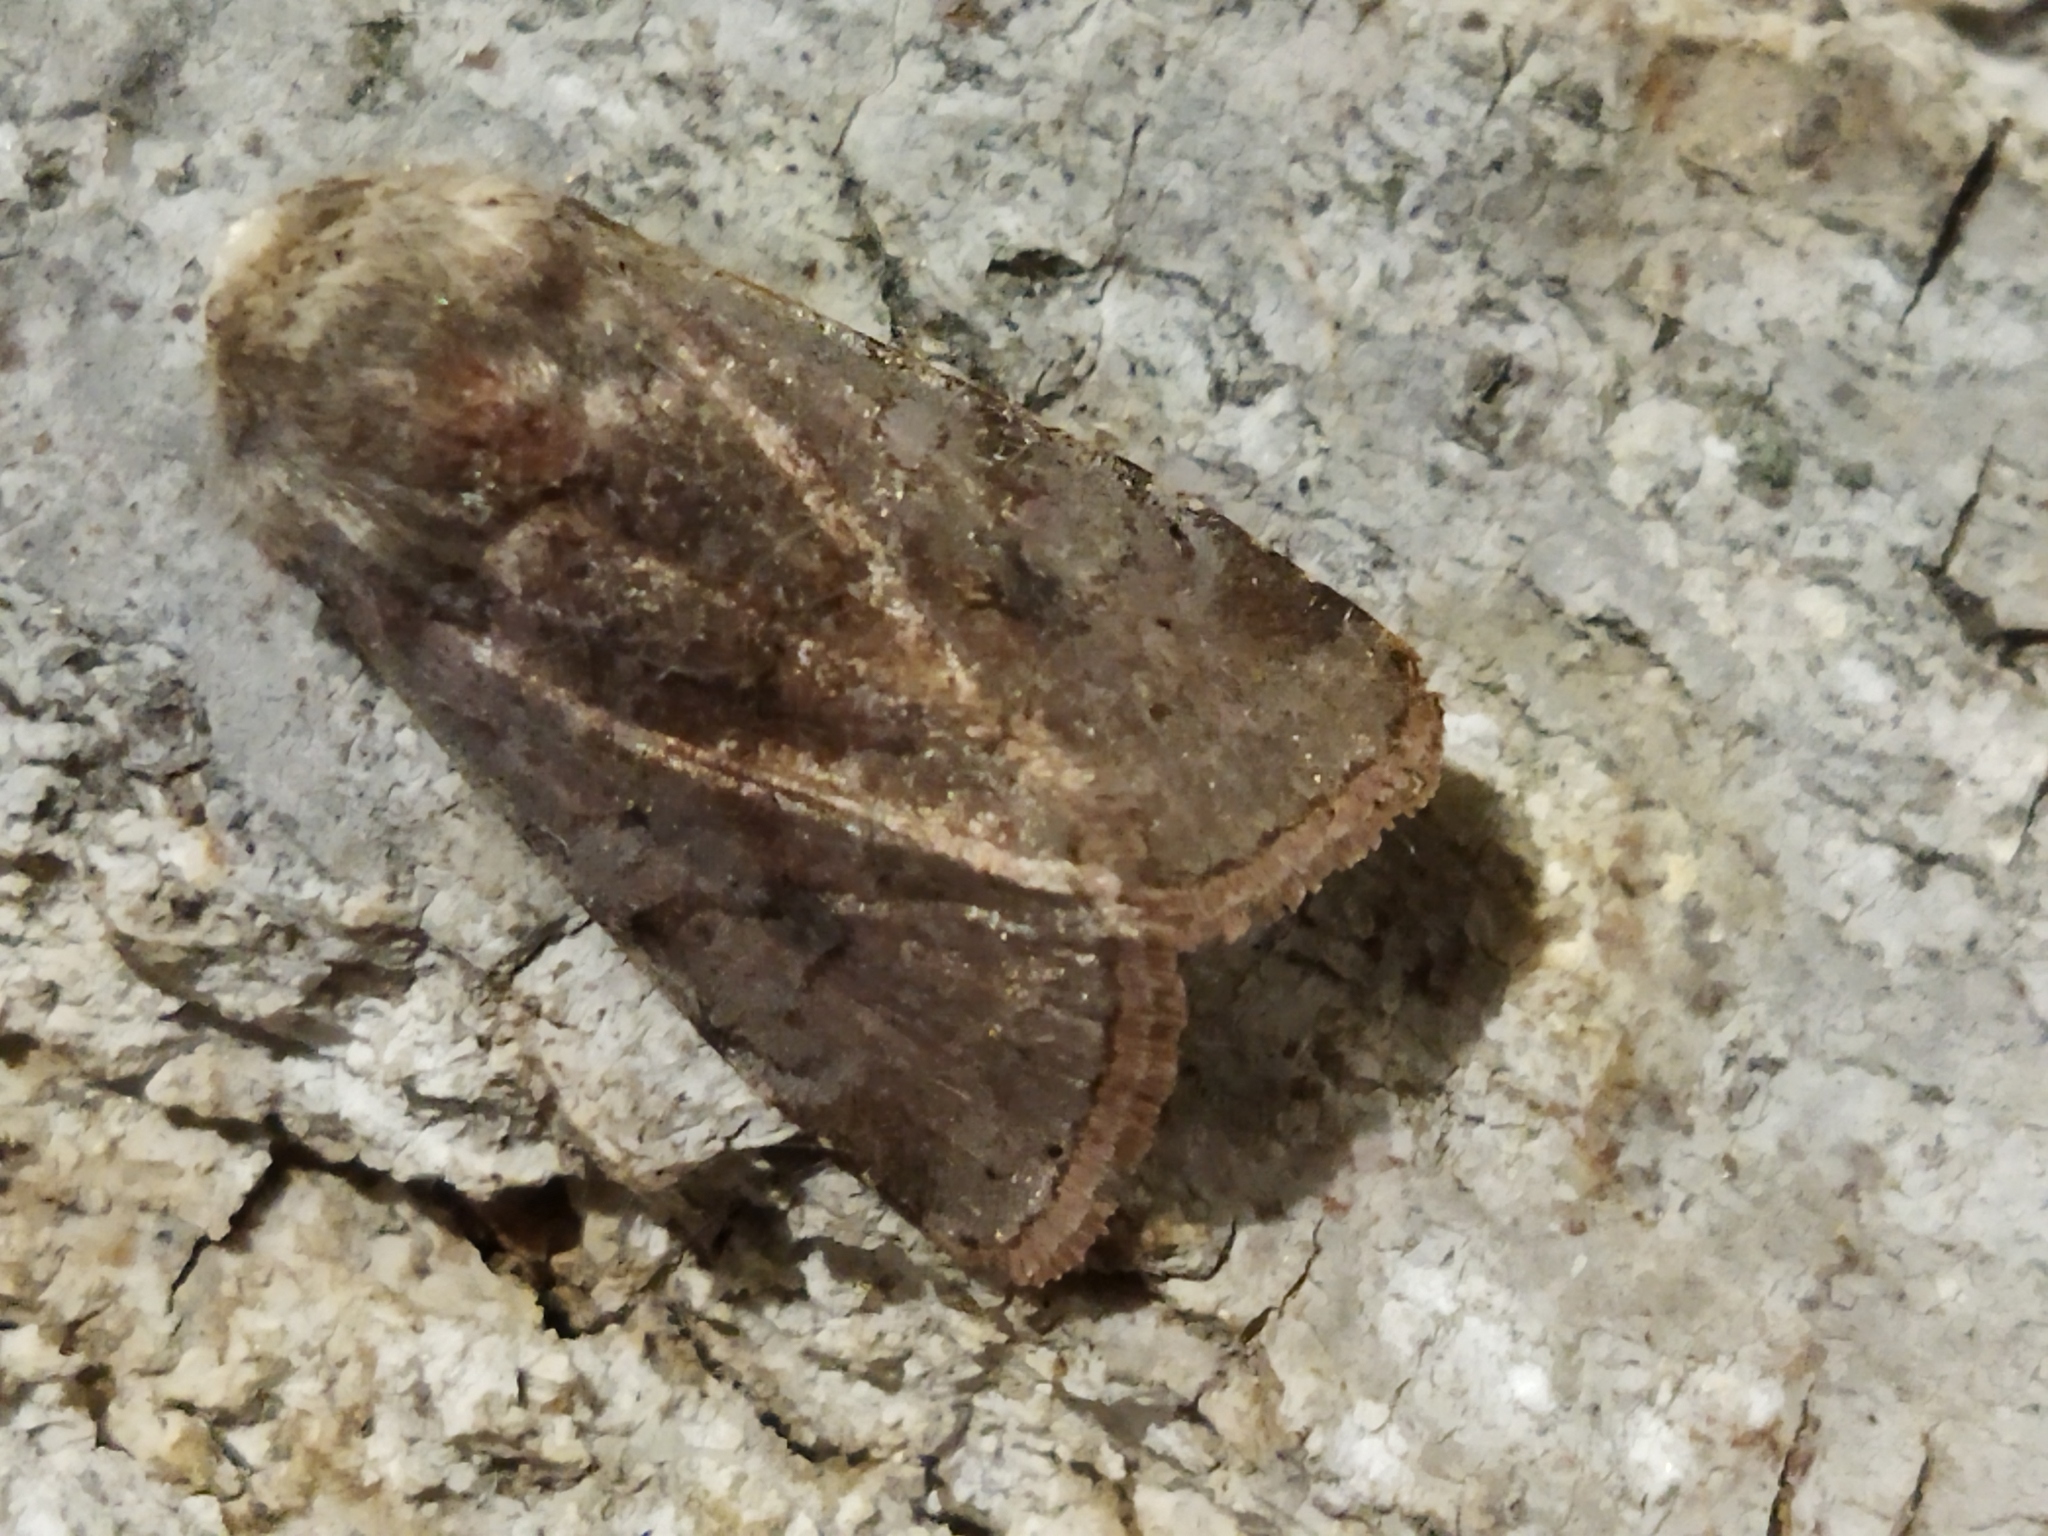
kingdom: Animalia
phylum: Arthropoda
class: Insecta
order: Lepidoptera
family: Noctuidae
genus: Cerastis
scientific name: Cerastis rubricosa
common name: Red chestnut
